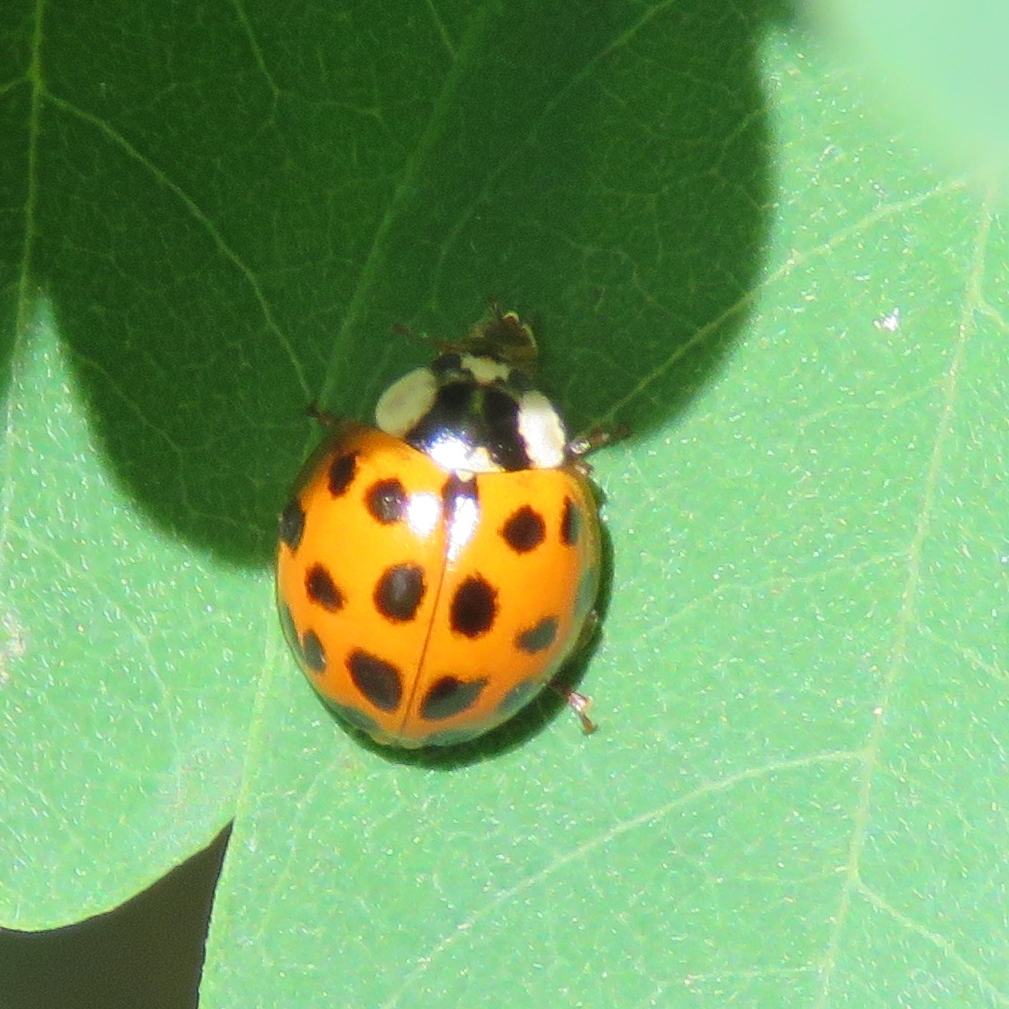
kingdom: Animalia
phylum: Arthropoda
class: Insecta
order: Coleoptera
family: Coccinellidae
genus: Harmonia
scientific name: Harmonia axyridis
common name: Harlequin ladybird
